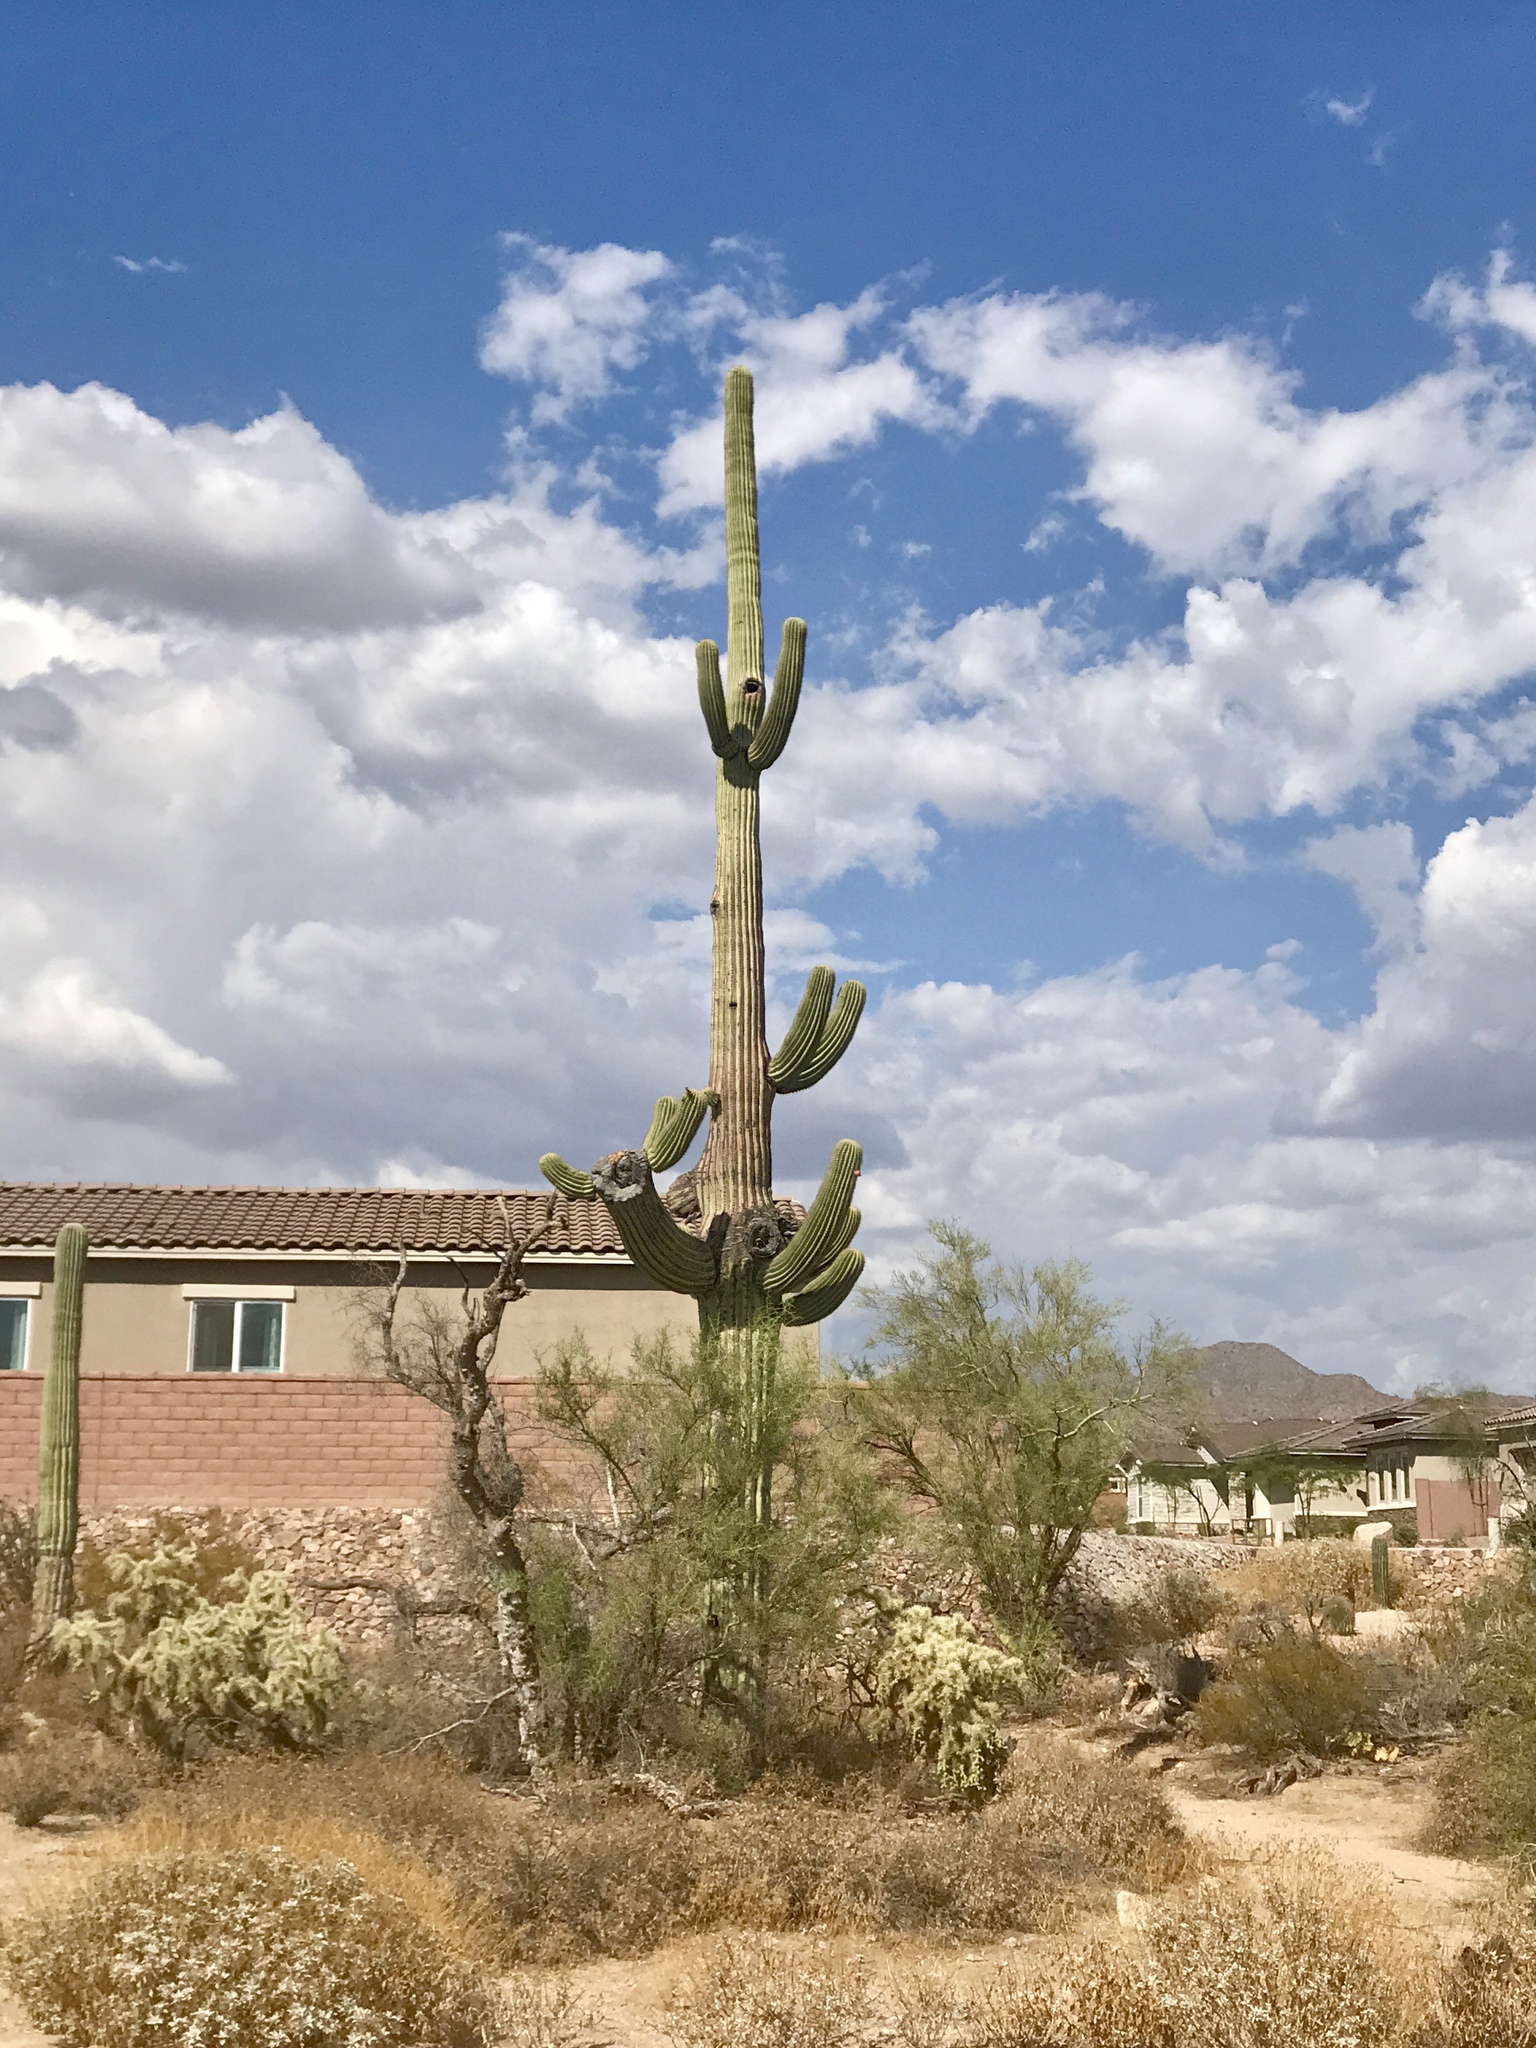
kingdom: Plantae
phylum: Tracheophyta
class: Magnoliopsida
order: Caryophyllales
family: Cactaceae
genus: Carnegiea
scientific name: Carnegiea gigantea
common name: Saguaro
